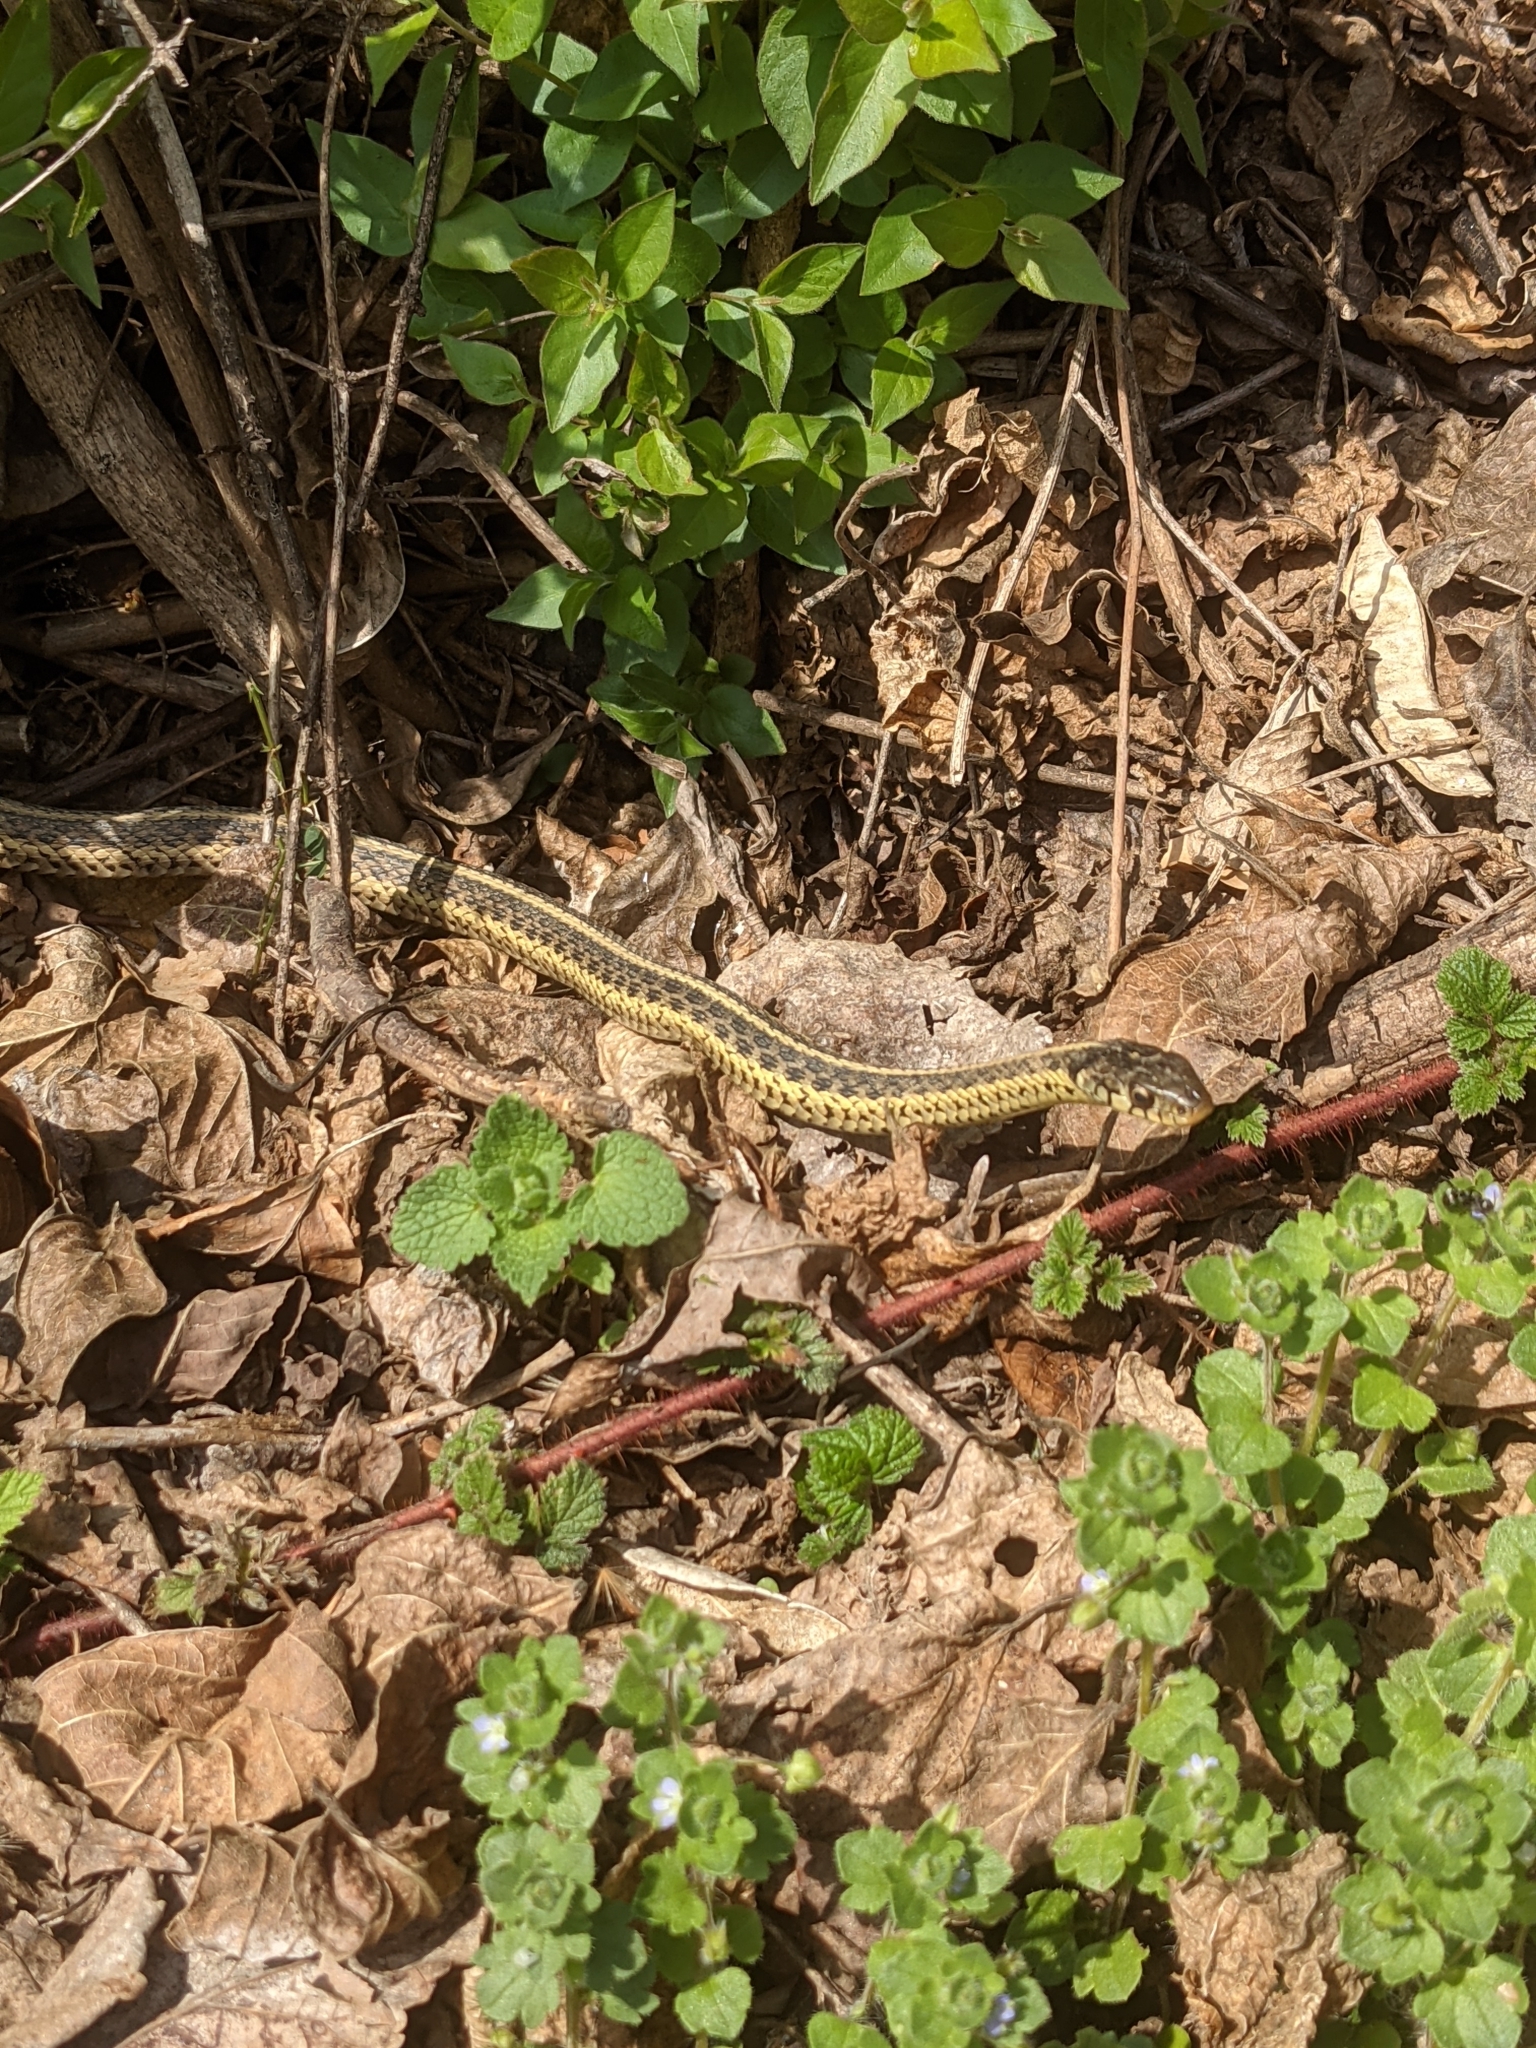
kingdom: Animalia
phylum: Chordata
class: Squamata
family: Colubridae
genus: Thamnophis
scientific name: Thamnophis sirtalis
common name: Common garter snake
